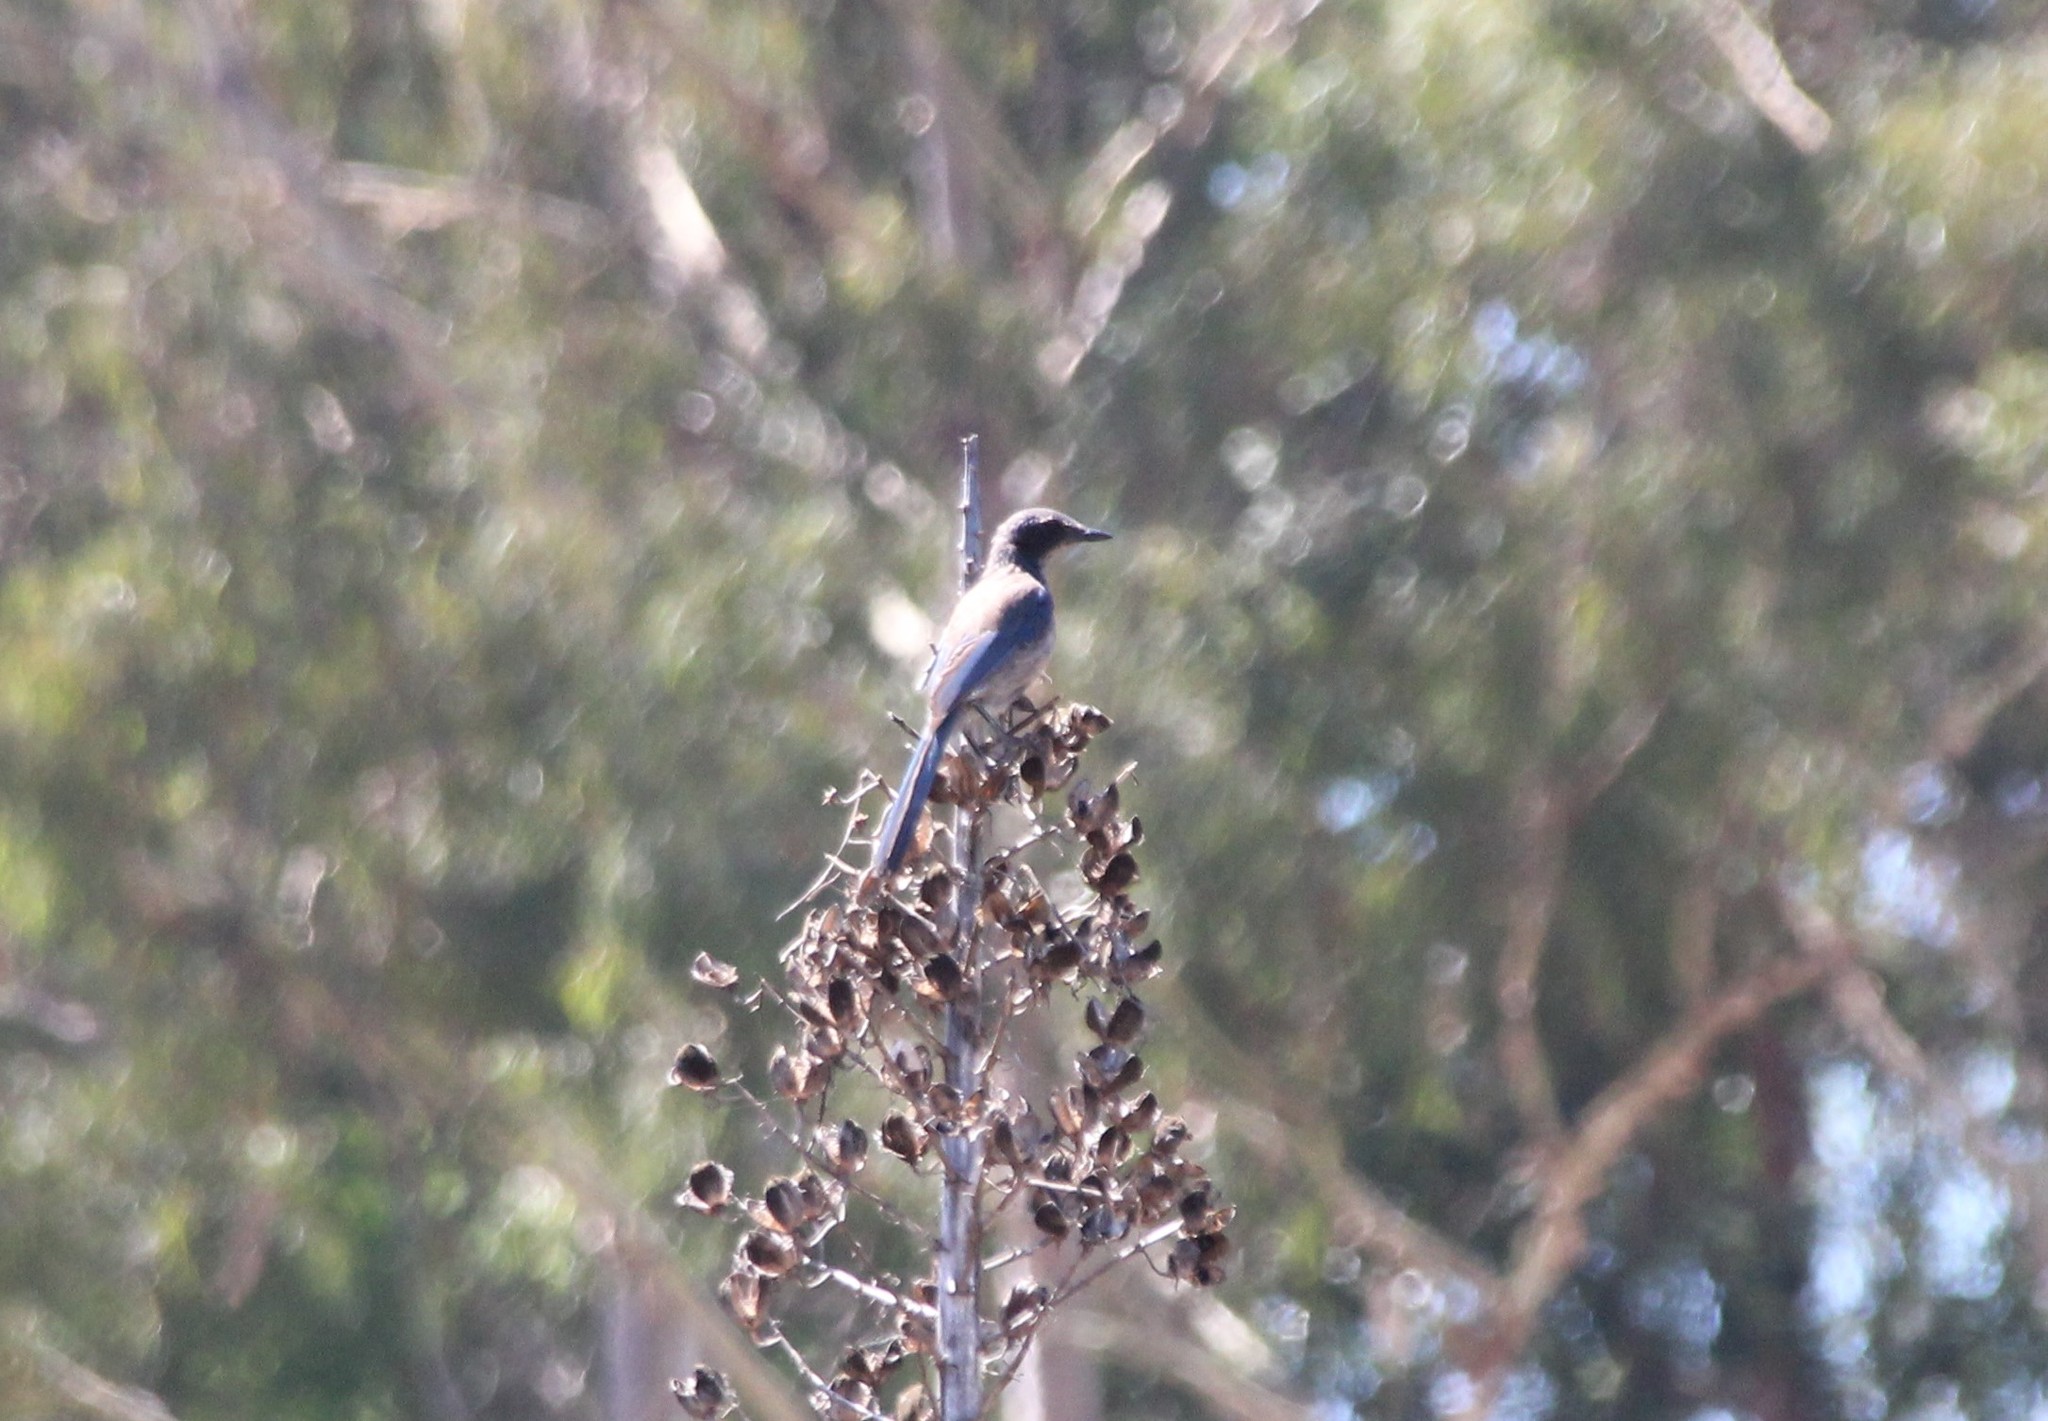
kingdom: Animalia
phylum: Chordata
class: Aves
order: Passeriformes
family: Corvidae
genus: Aphelocoma
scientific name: Aphelocoma californica
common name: California scrub-jay
